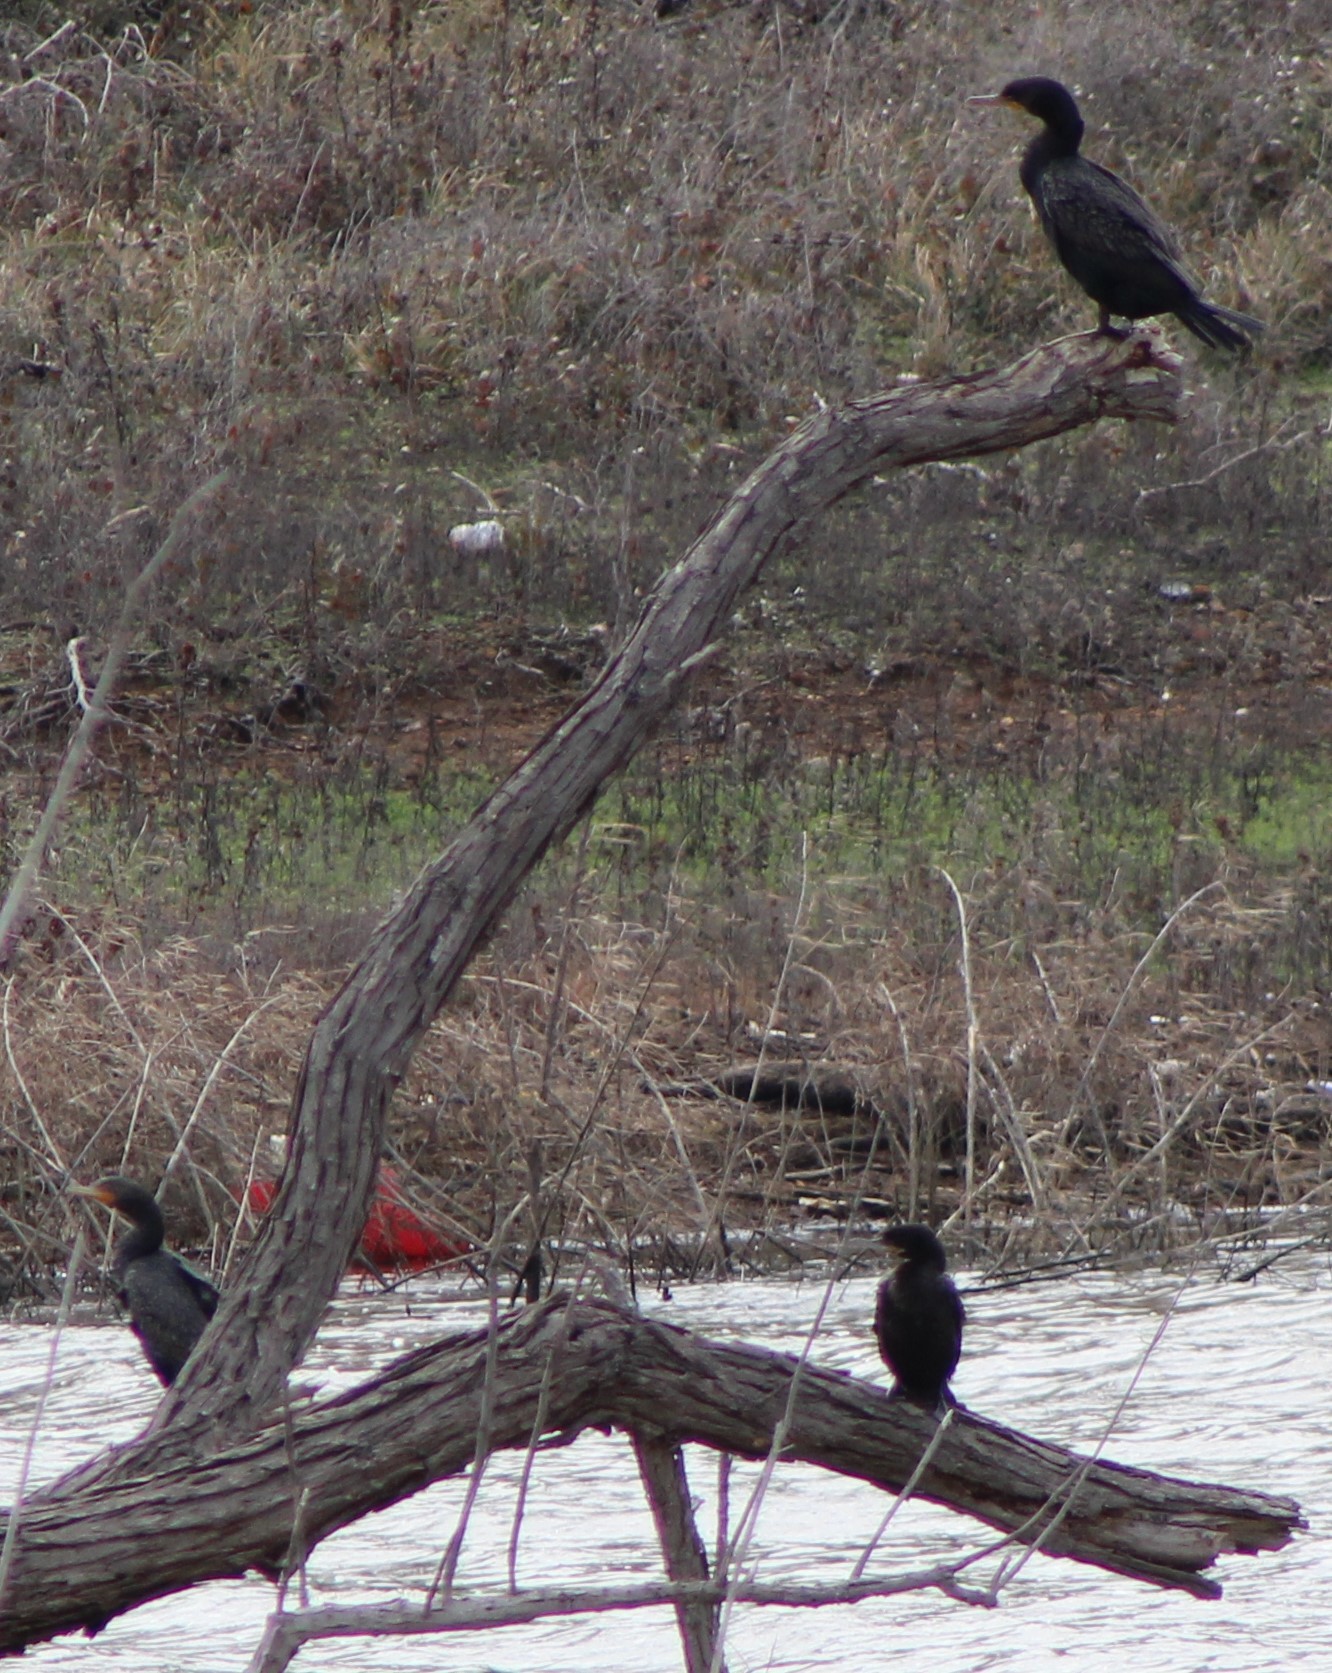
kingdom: Animalia
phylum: Chordata
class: Aves
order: Suliformes
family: Phalacrocoracidae
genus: Phalacrocorax
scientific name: Phalacrocorax auritus
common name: Double-crested cormorant
